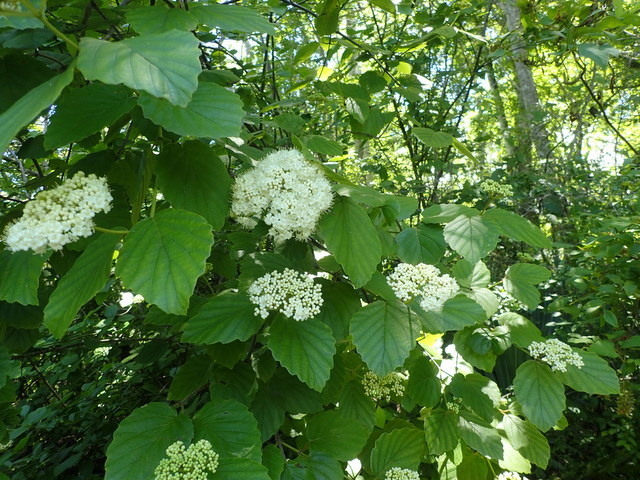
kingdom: Plantae
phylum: Tracheophyta
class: Magnoliopsida
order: Dipsacales
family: Viburnaceae
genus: Viburnum
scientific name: Viburnum scabrellum
